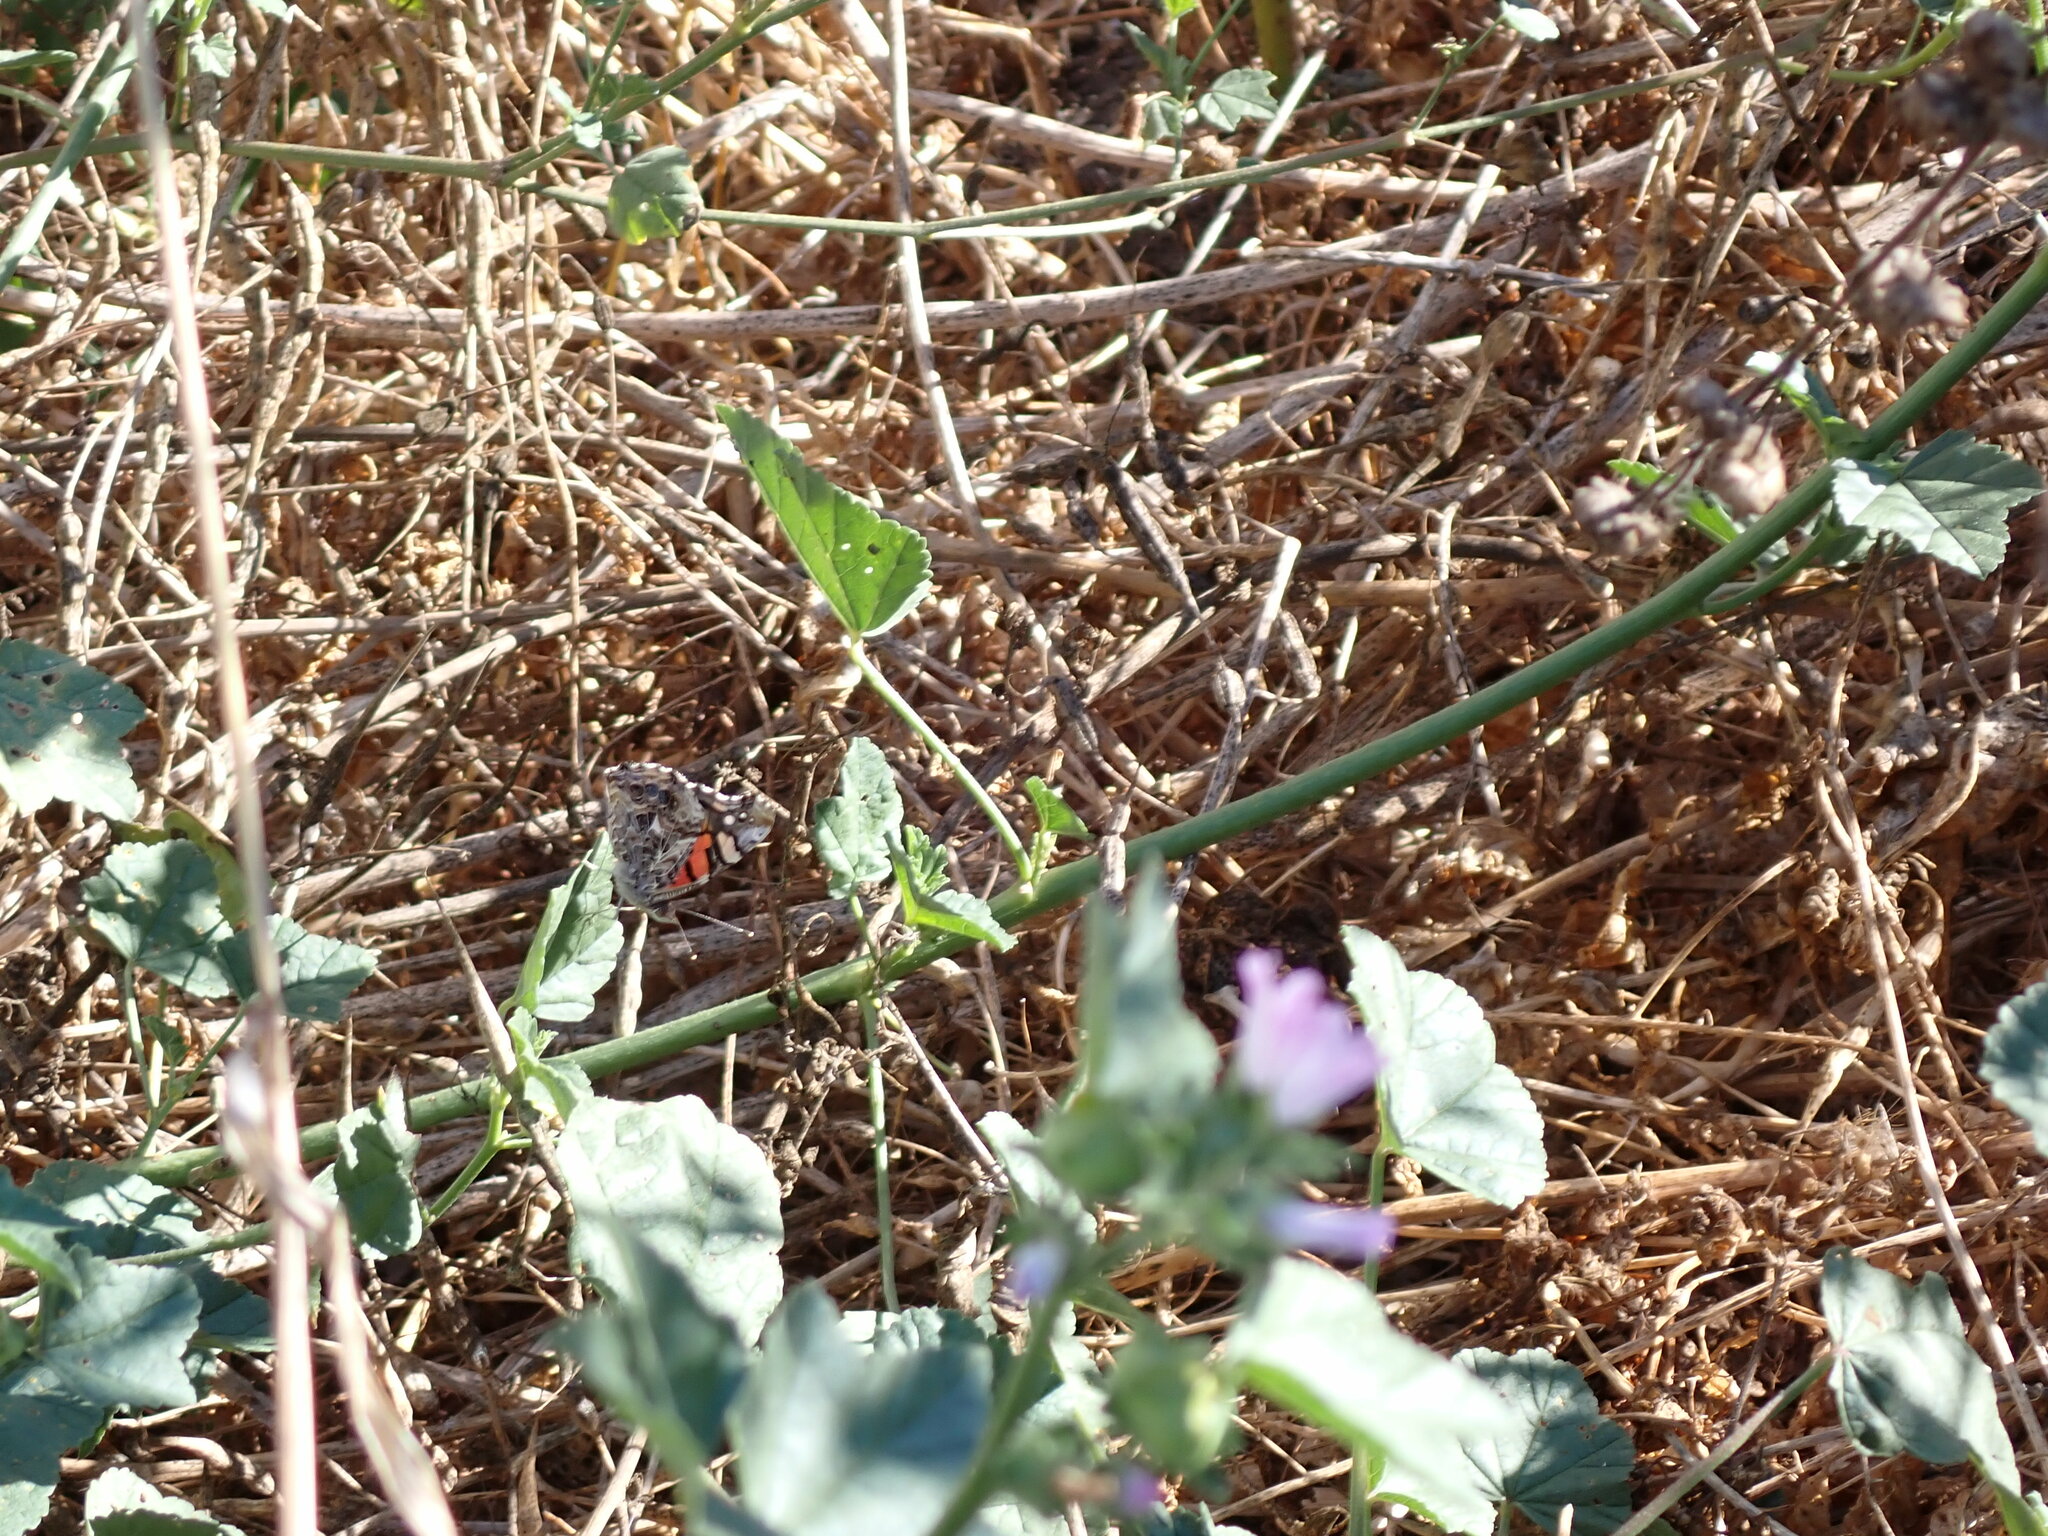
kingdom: Animalia
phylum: Arthropoda
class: Insecta
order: Lepidoptera
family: Nymphalidae
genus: Vanessa
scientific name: Vanessa annabella
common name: West coast lady
